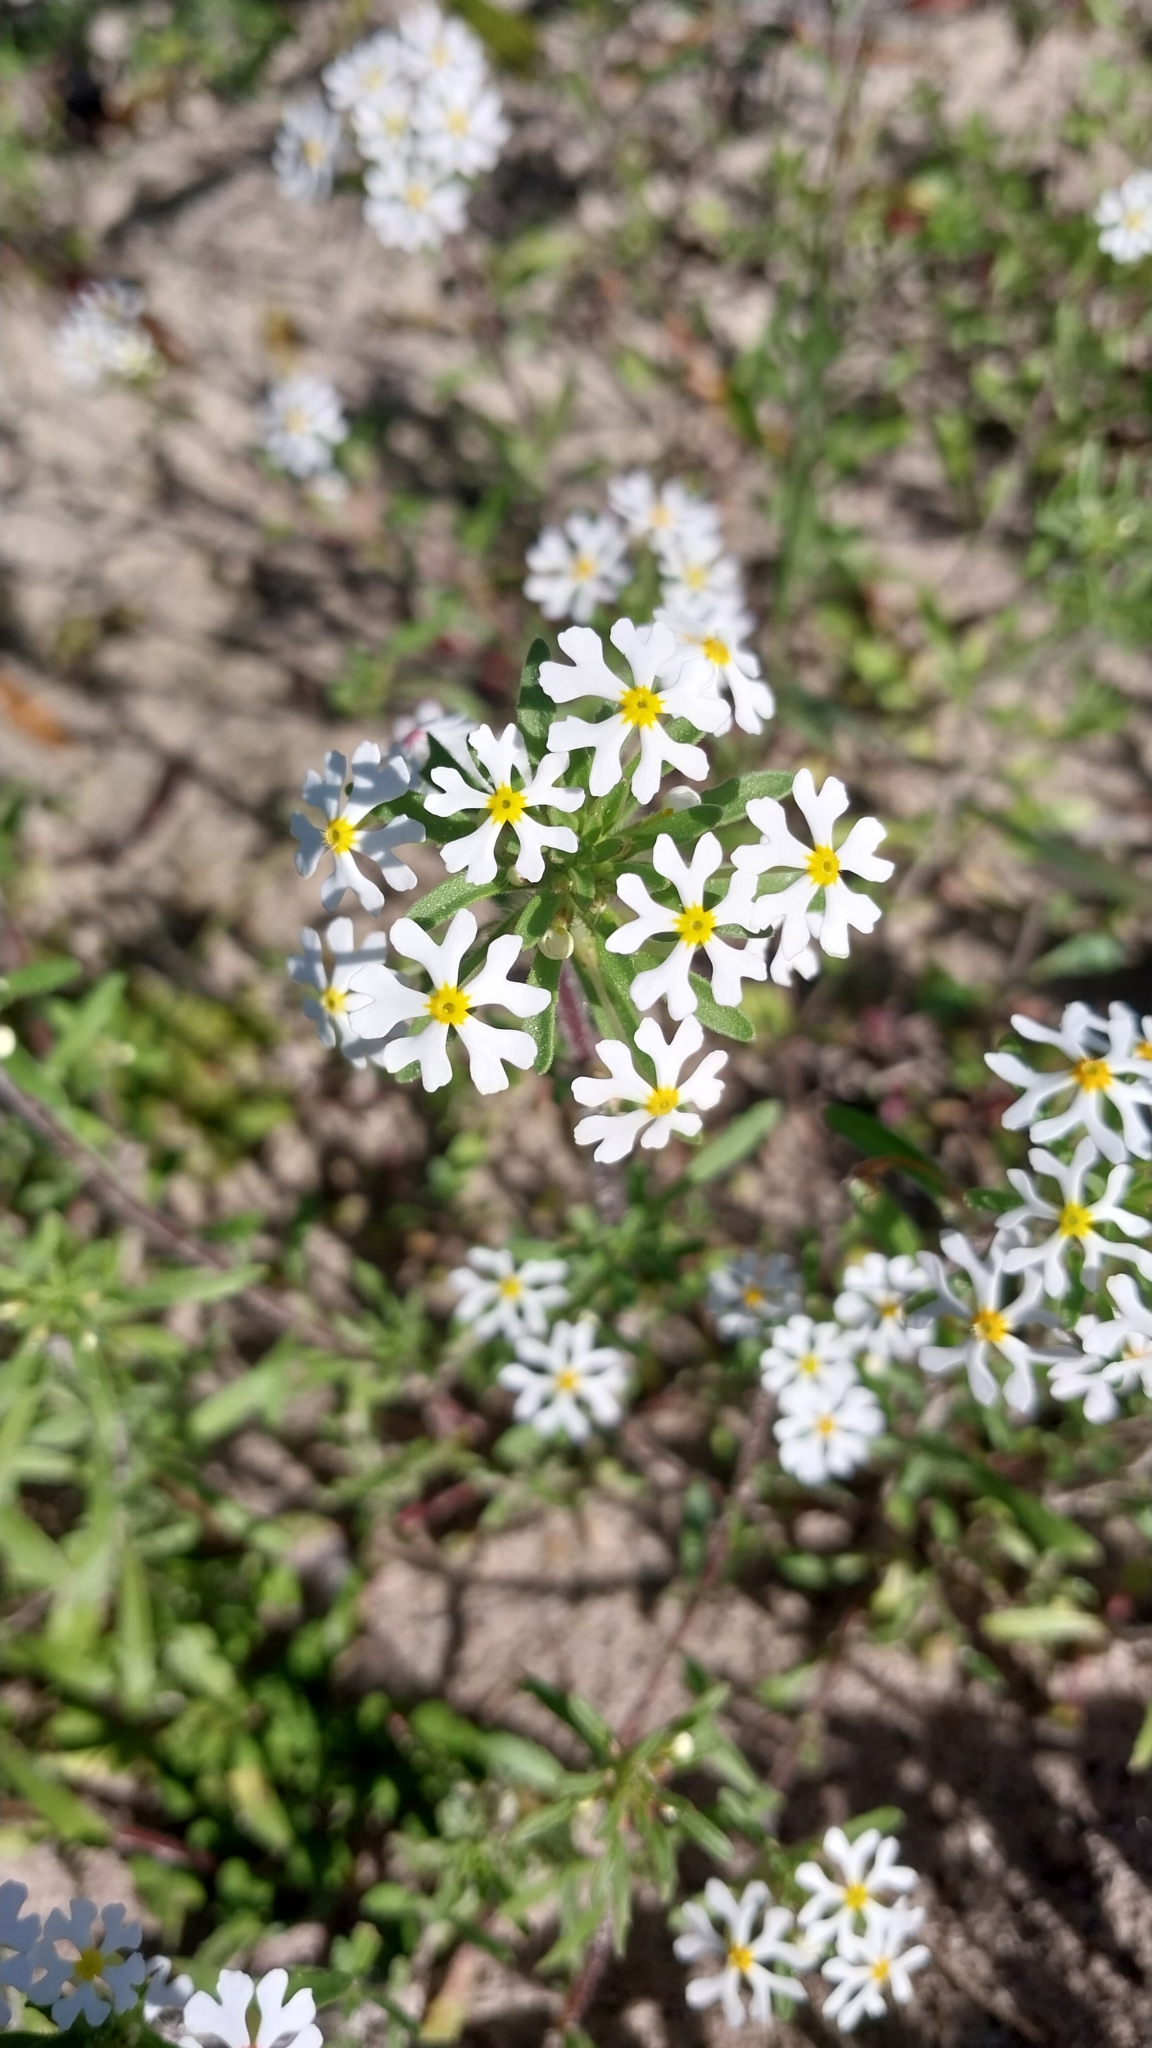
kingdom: Plantae
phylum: Tracheophyta
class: Magnoliopsida
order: Lamiales
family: Scrophulariaceae
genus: Zaluzianskya
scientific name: Zaluzianskya villosa
